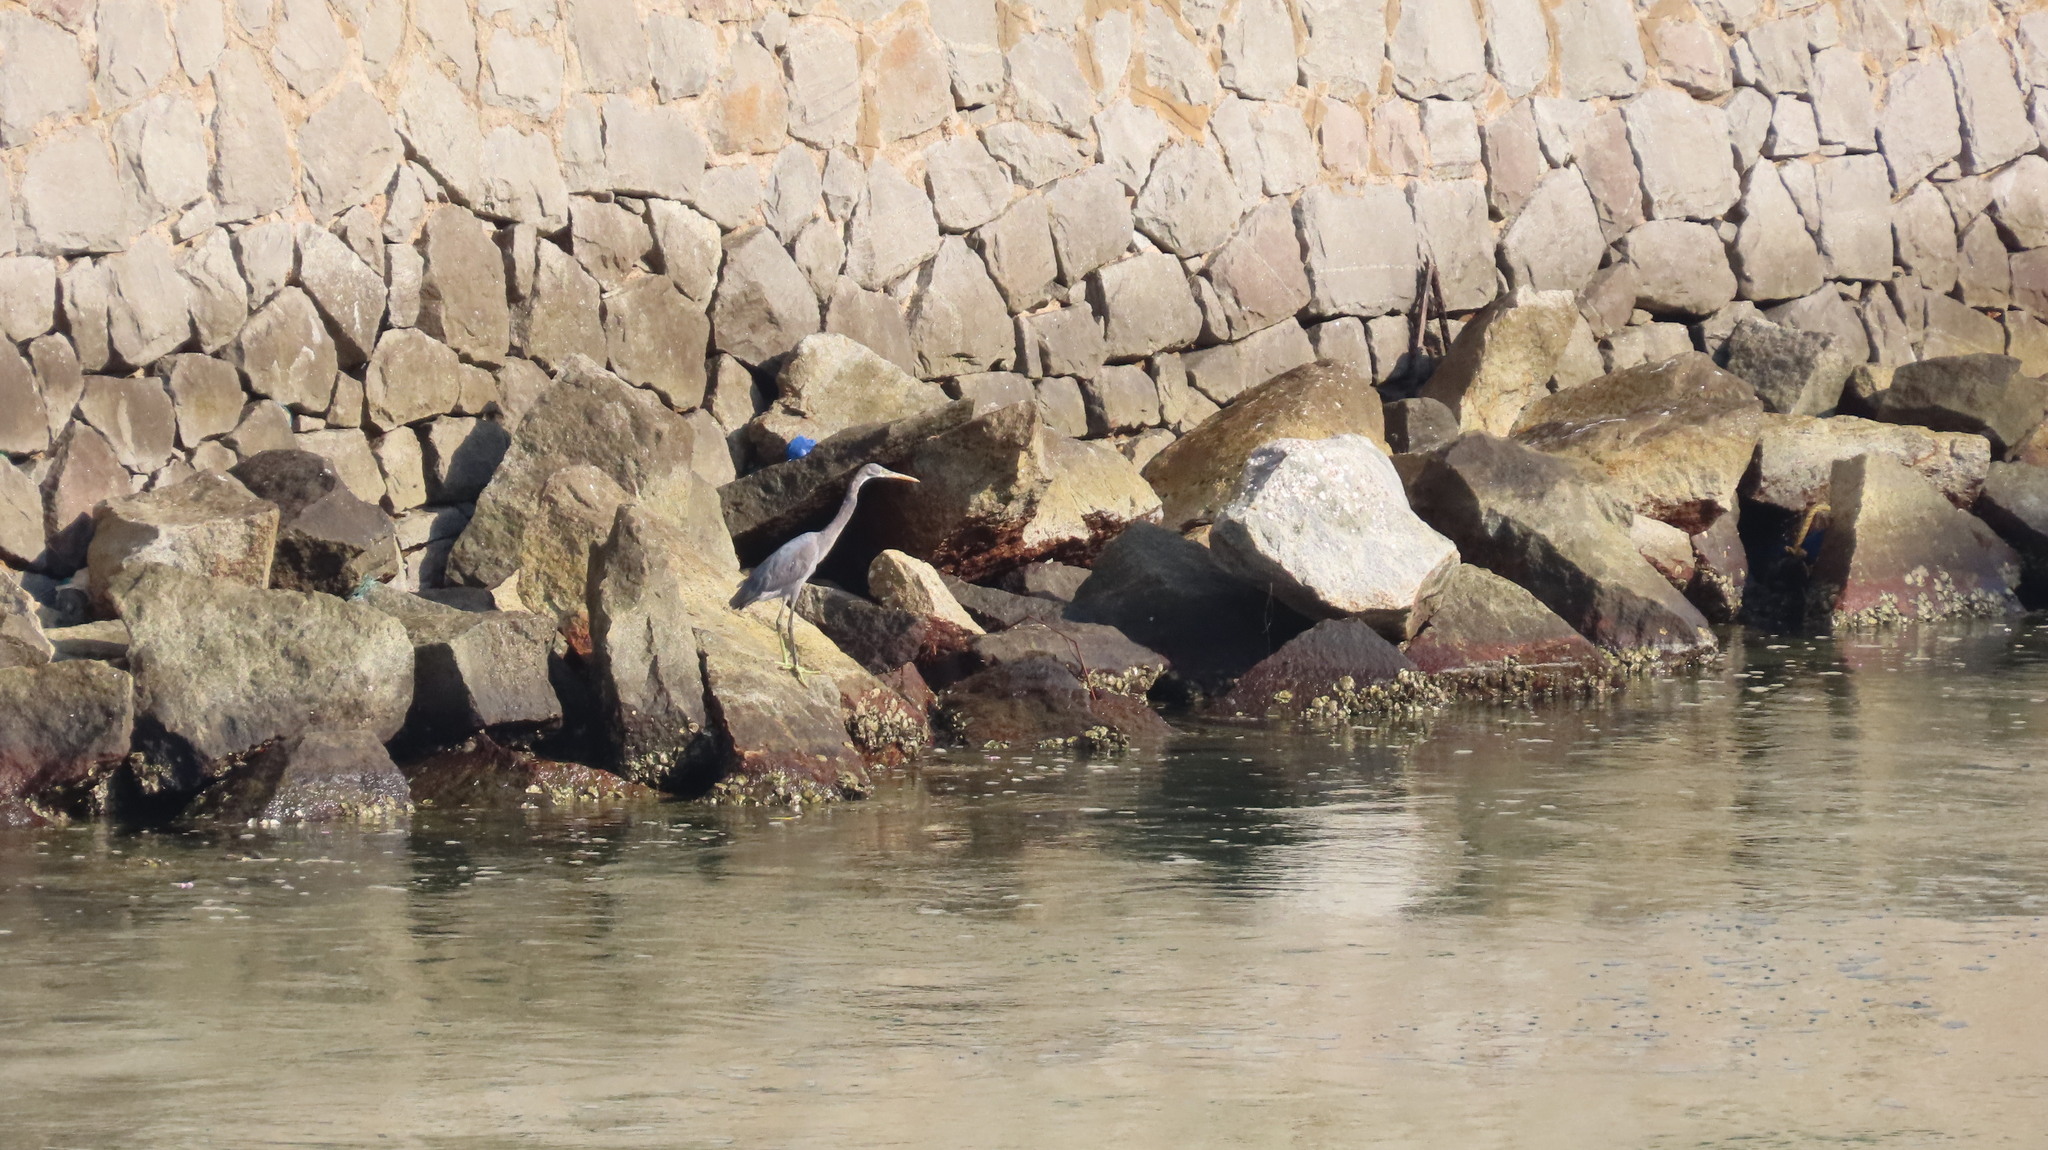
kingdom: Animalia
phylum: Chordata
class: Aves
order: Pelecaniformes
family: Ardeidae
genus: Egretta
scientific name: Egretta gularis
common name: Western reef-heron
